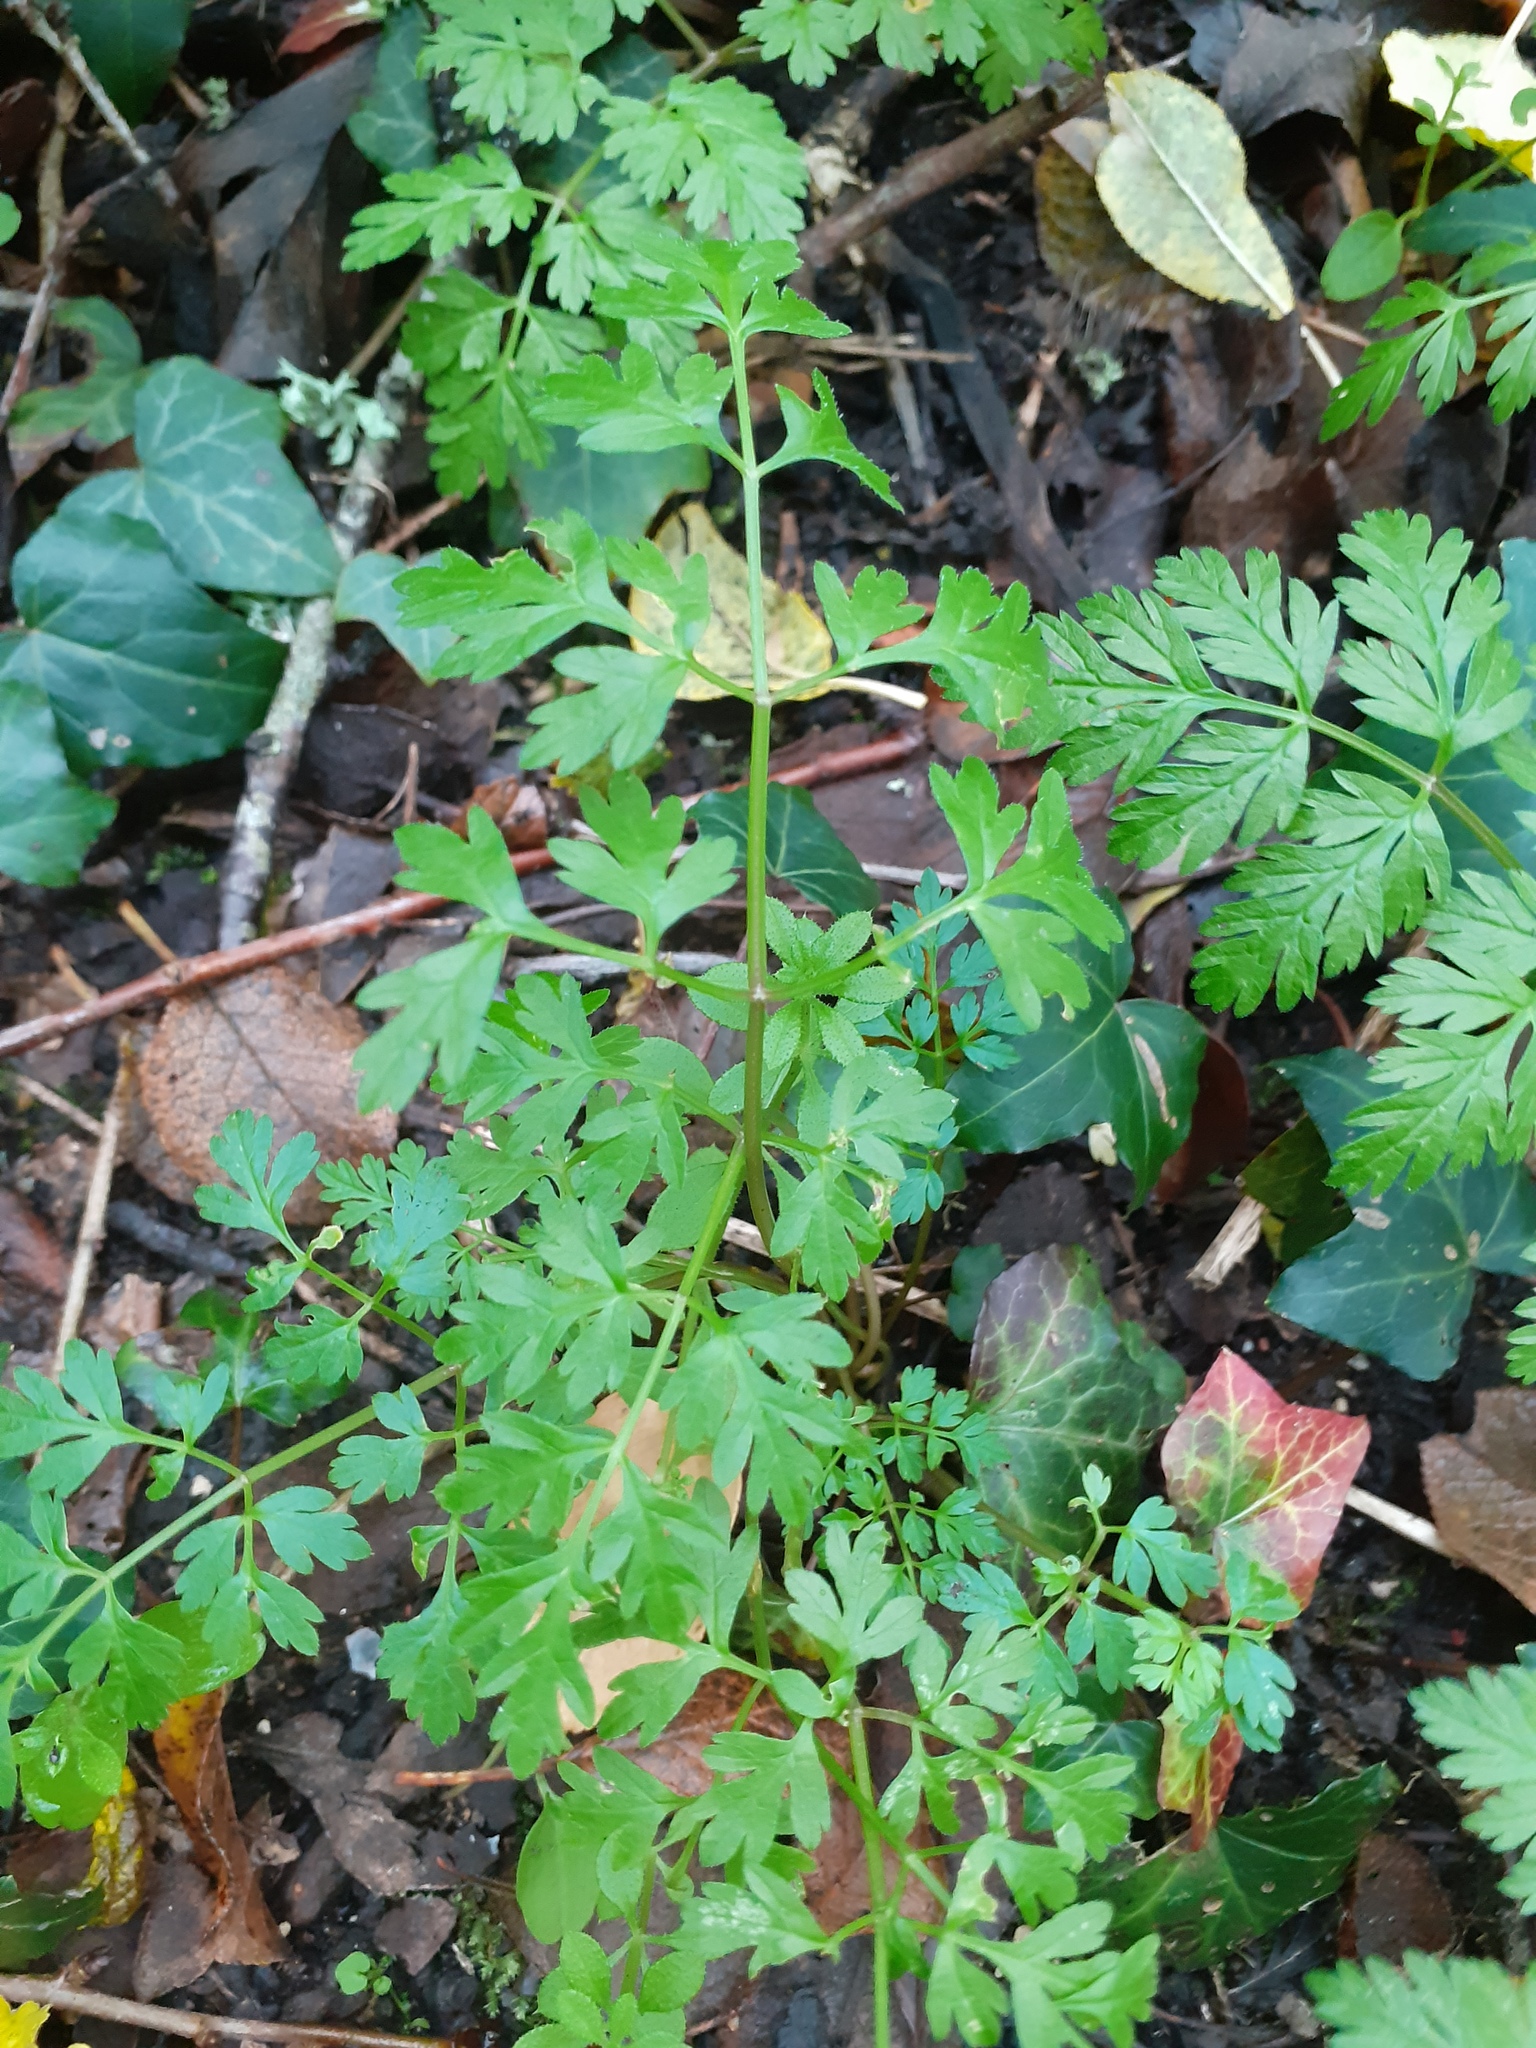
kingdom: Plantae
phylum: Tracheophyta
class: Magnoliopsida
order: Apiales
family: Apiaceae
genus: Anthriscus
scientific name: Anthriscus sylvestris
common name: Cow parsley
